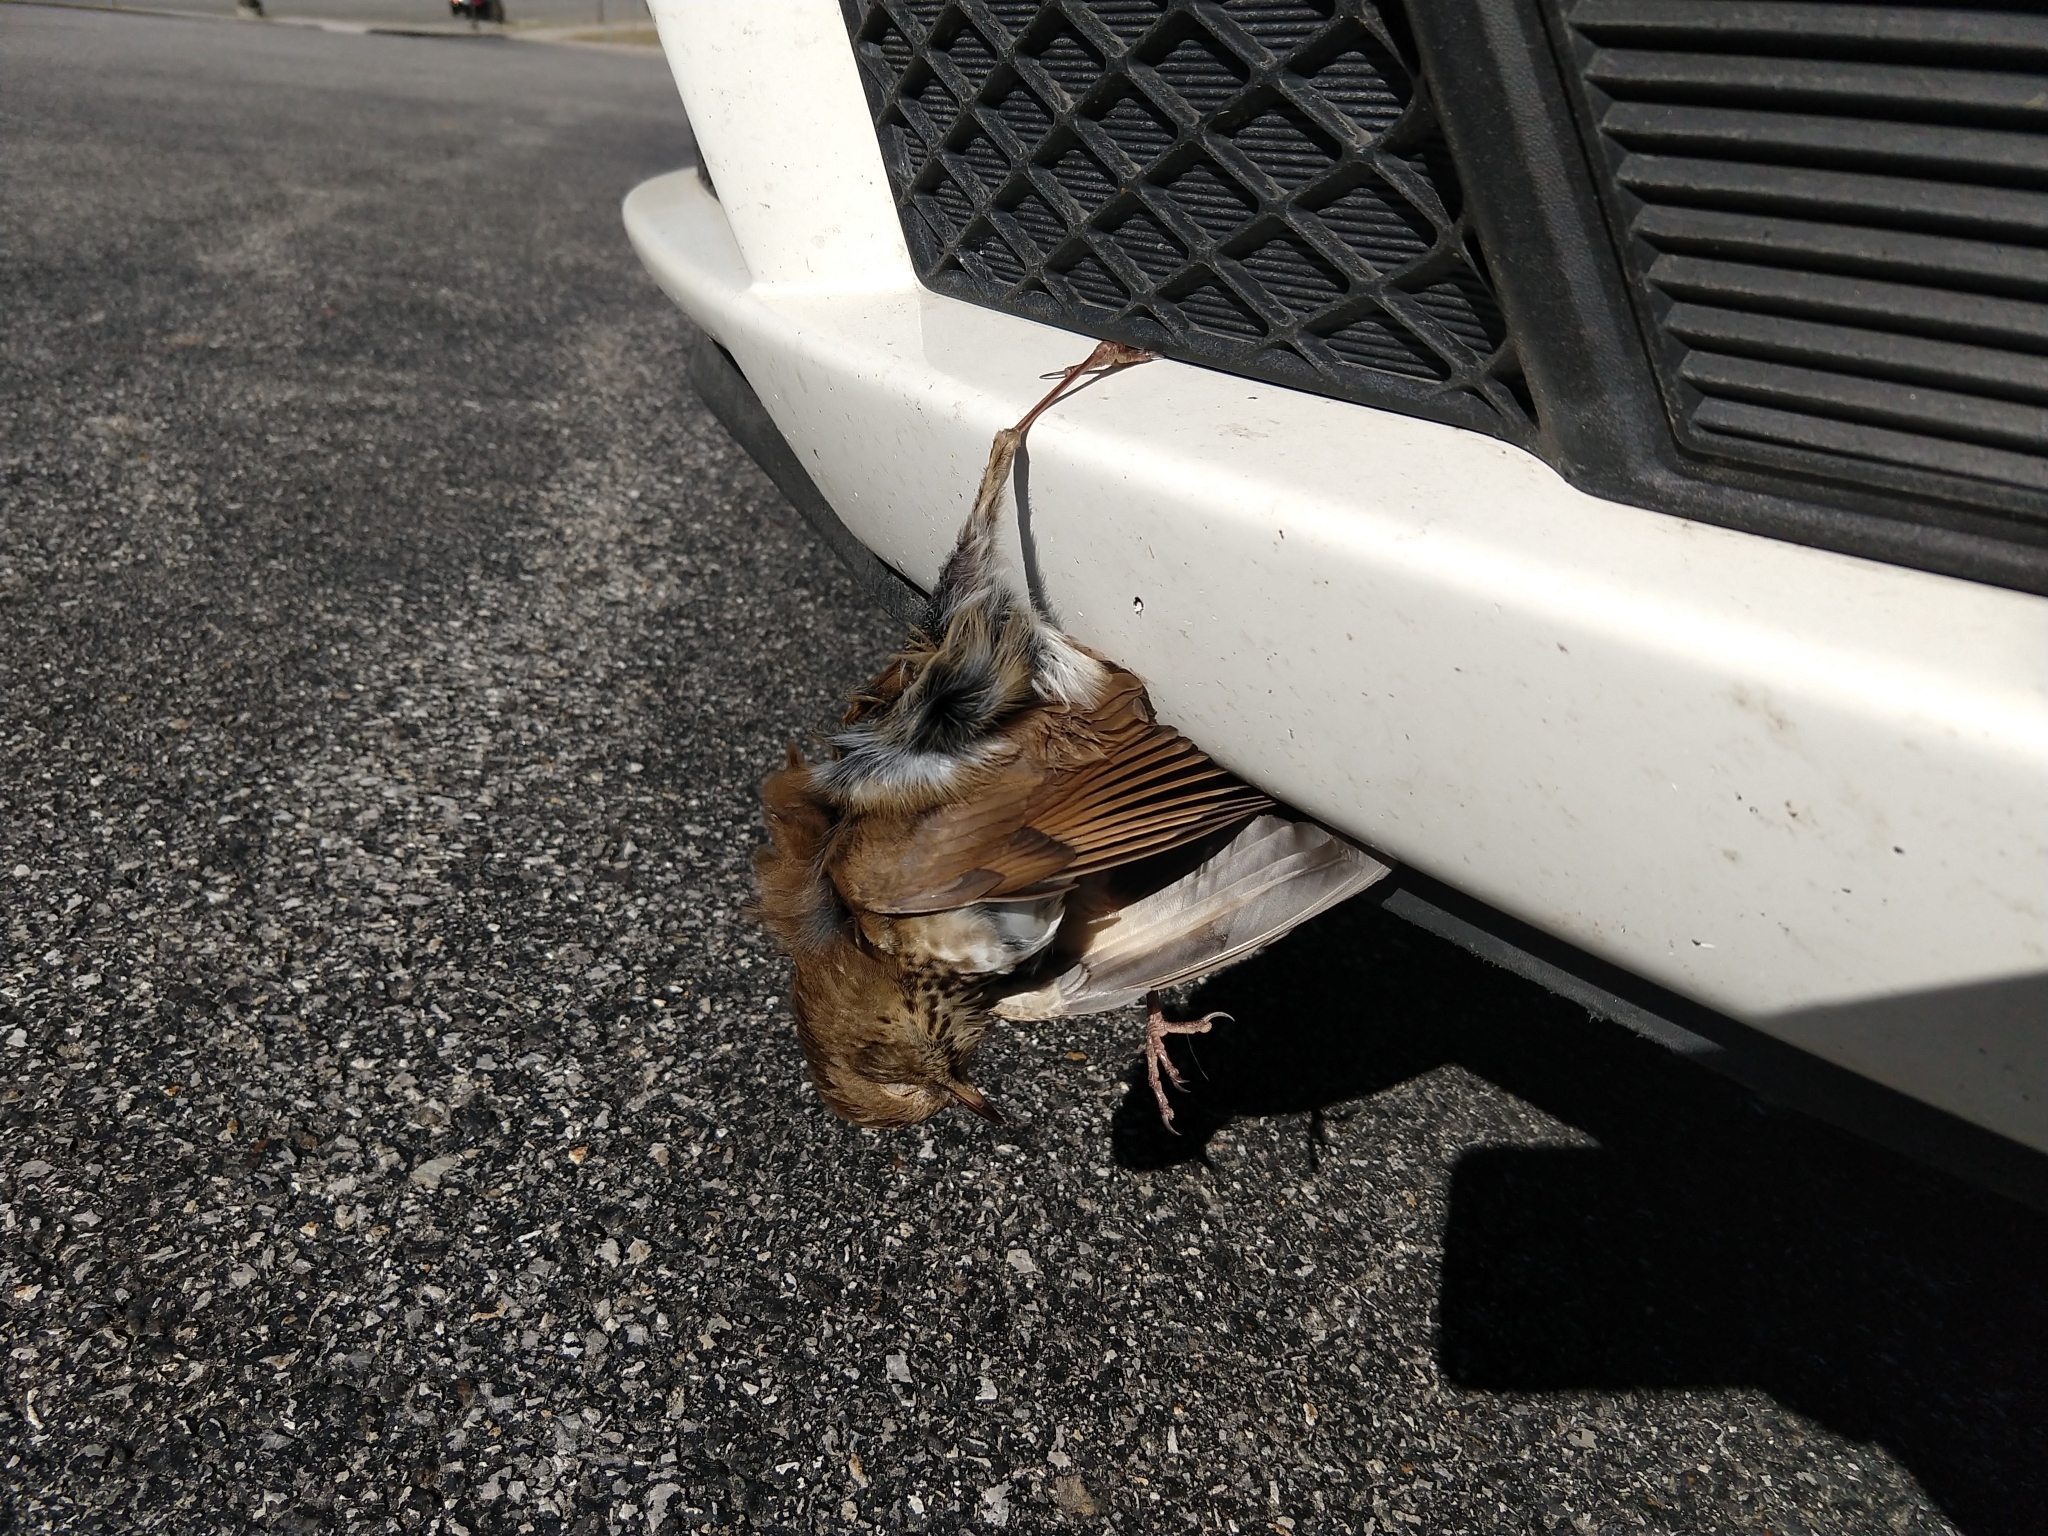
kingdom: Animalia
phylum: Chordata
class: Aves
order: Passeriformes
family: Turdidae
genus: Catharus
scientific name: Catharus guttatus
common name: Hermit thrush
